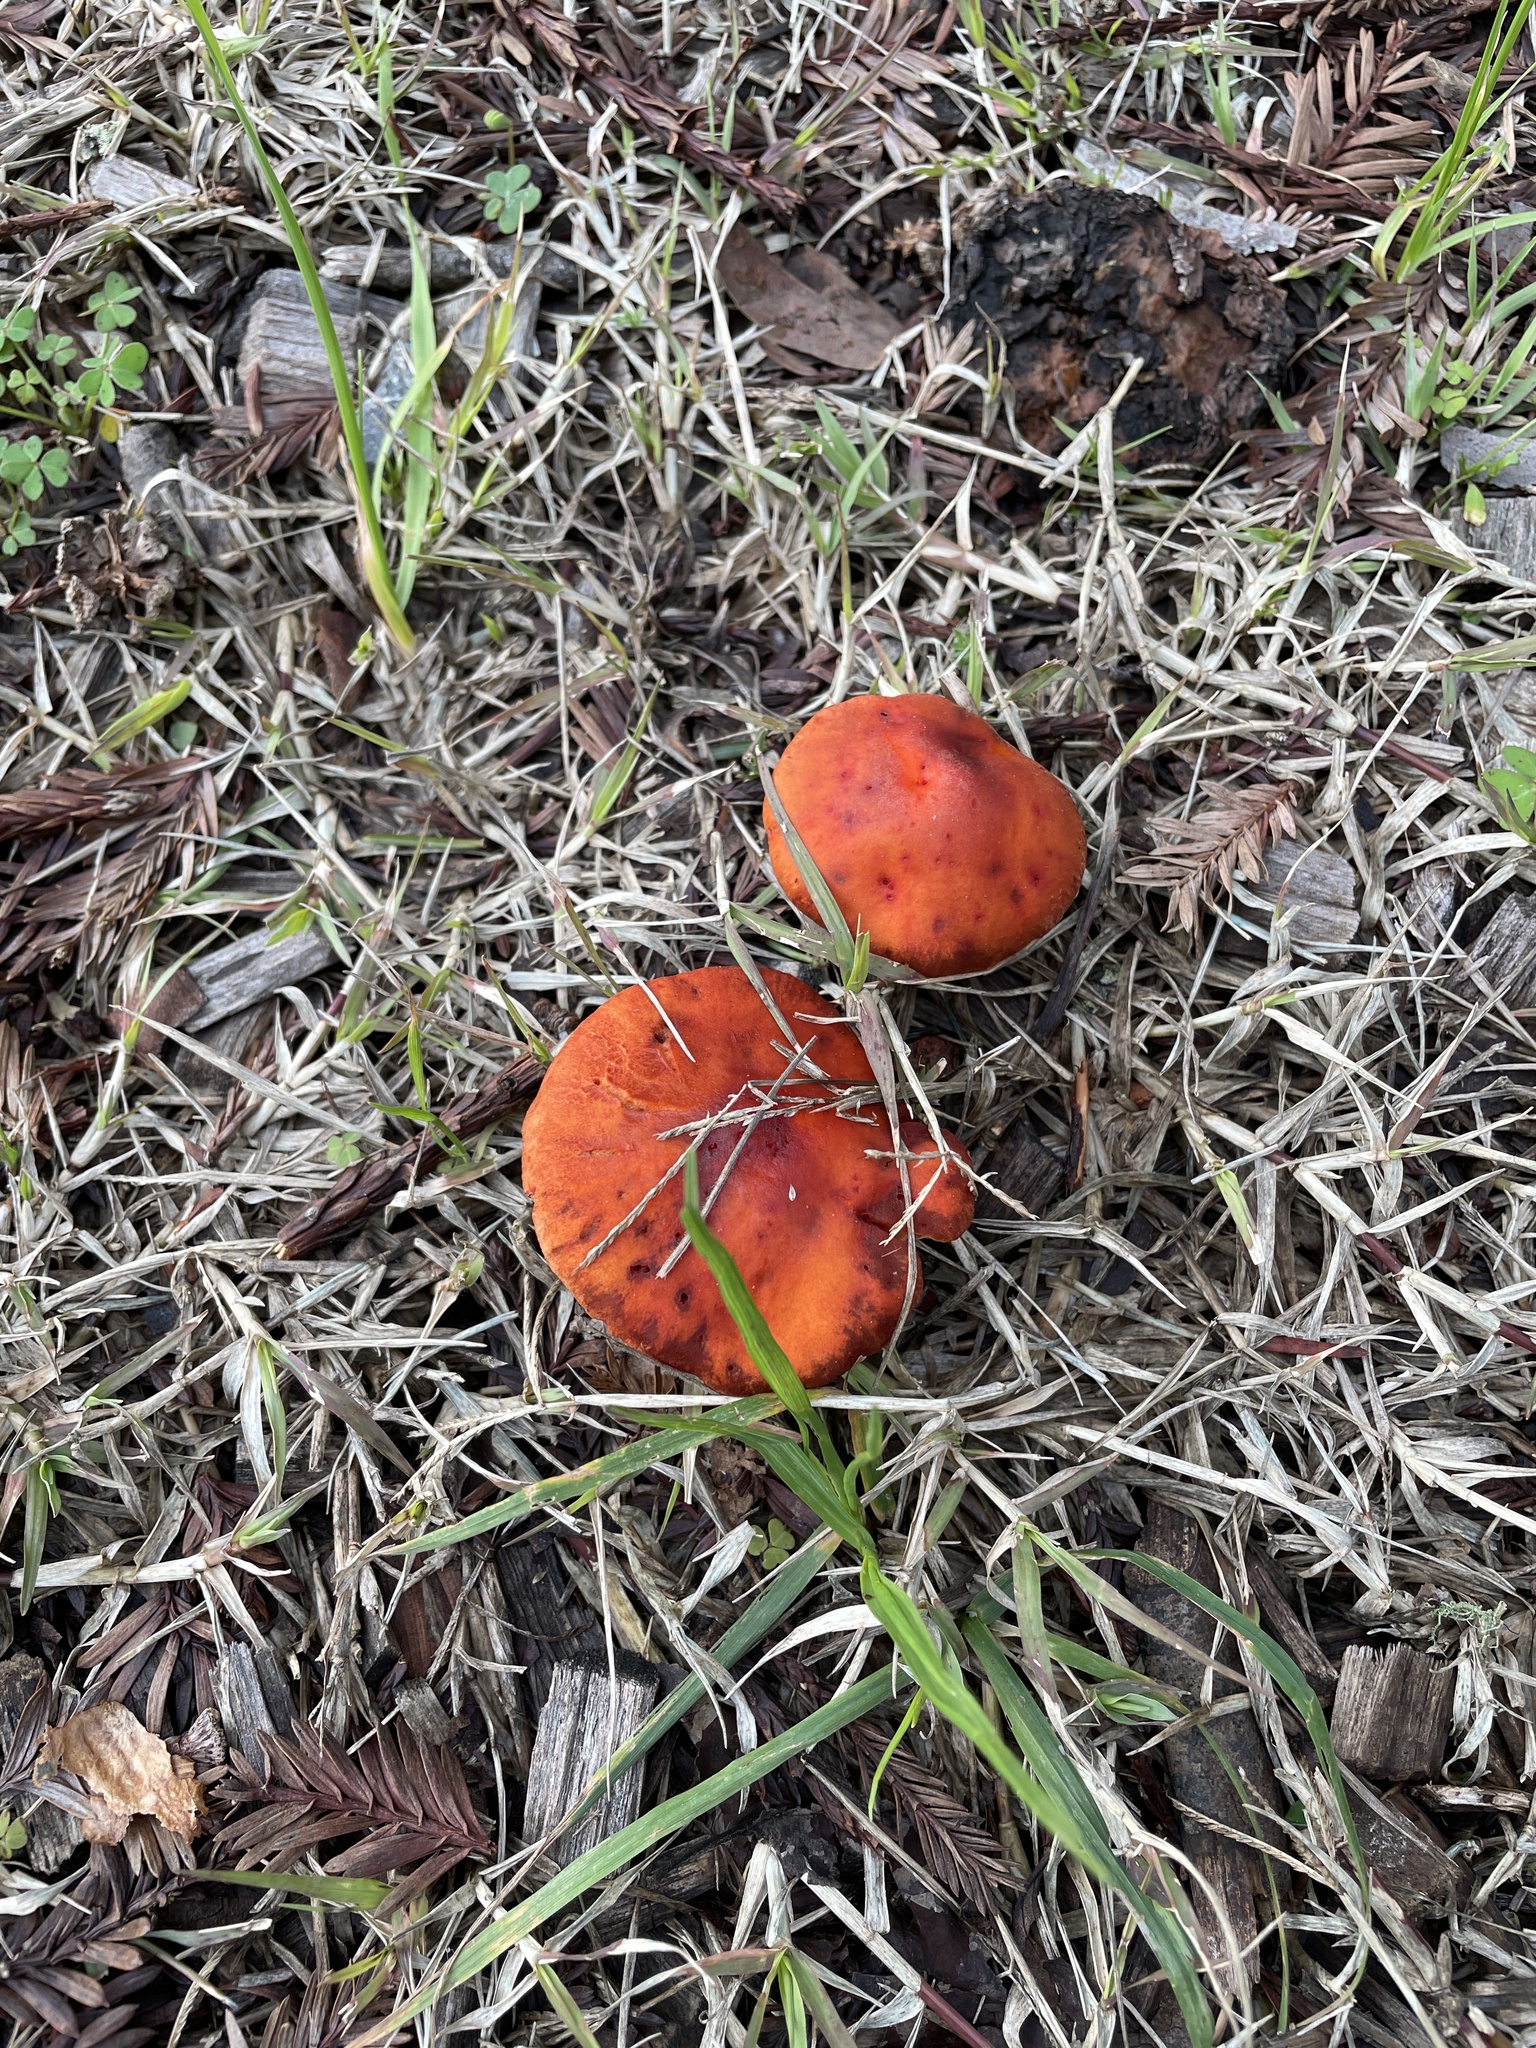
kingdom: Fungi
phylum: Basidiomycota
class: Agaricomycetes
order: Agaricales
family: Strophariaceae
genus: Leratiomyces
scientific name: Leratiomyces ceres
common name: Redlead roundhead
